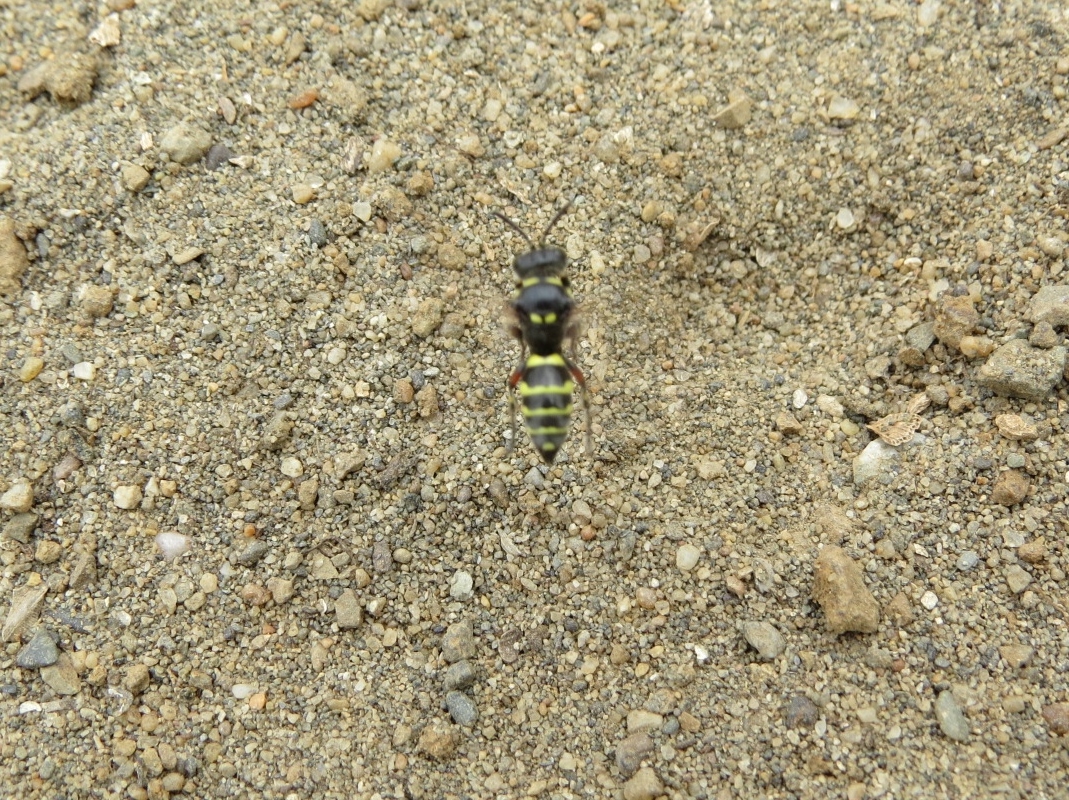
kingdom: Animalia
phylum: Arthropoda
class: Insecta
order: Hymenoptera
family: Crabronidae
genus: Hoplisoides
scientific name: Hoplisoides hamatus
